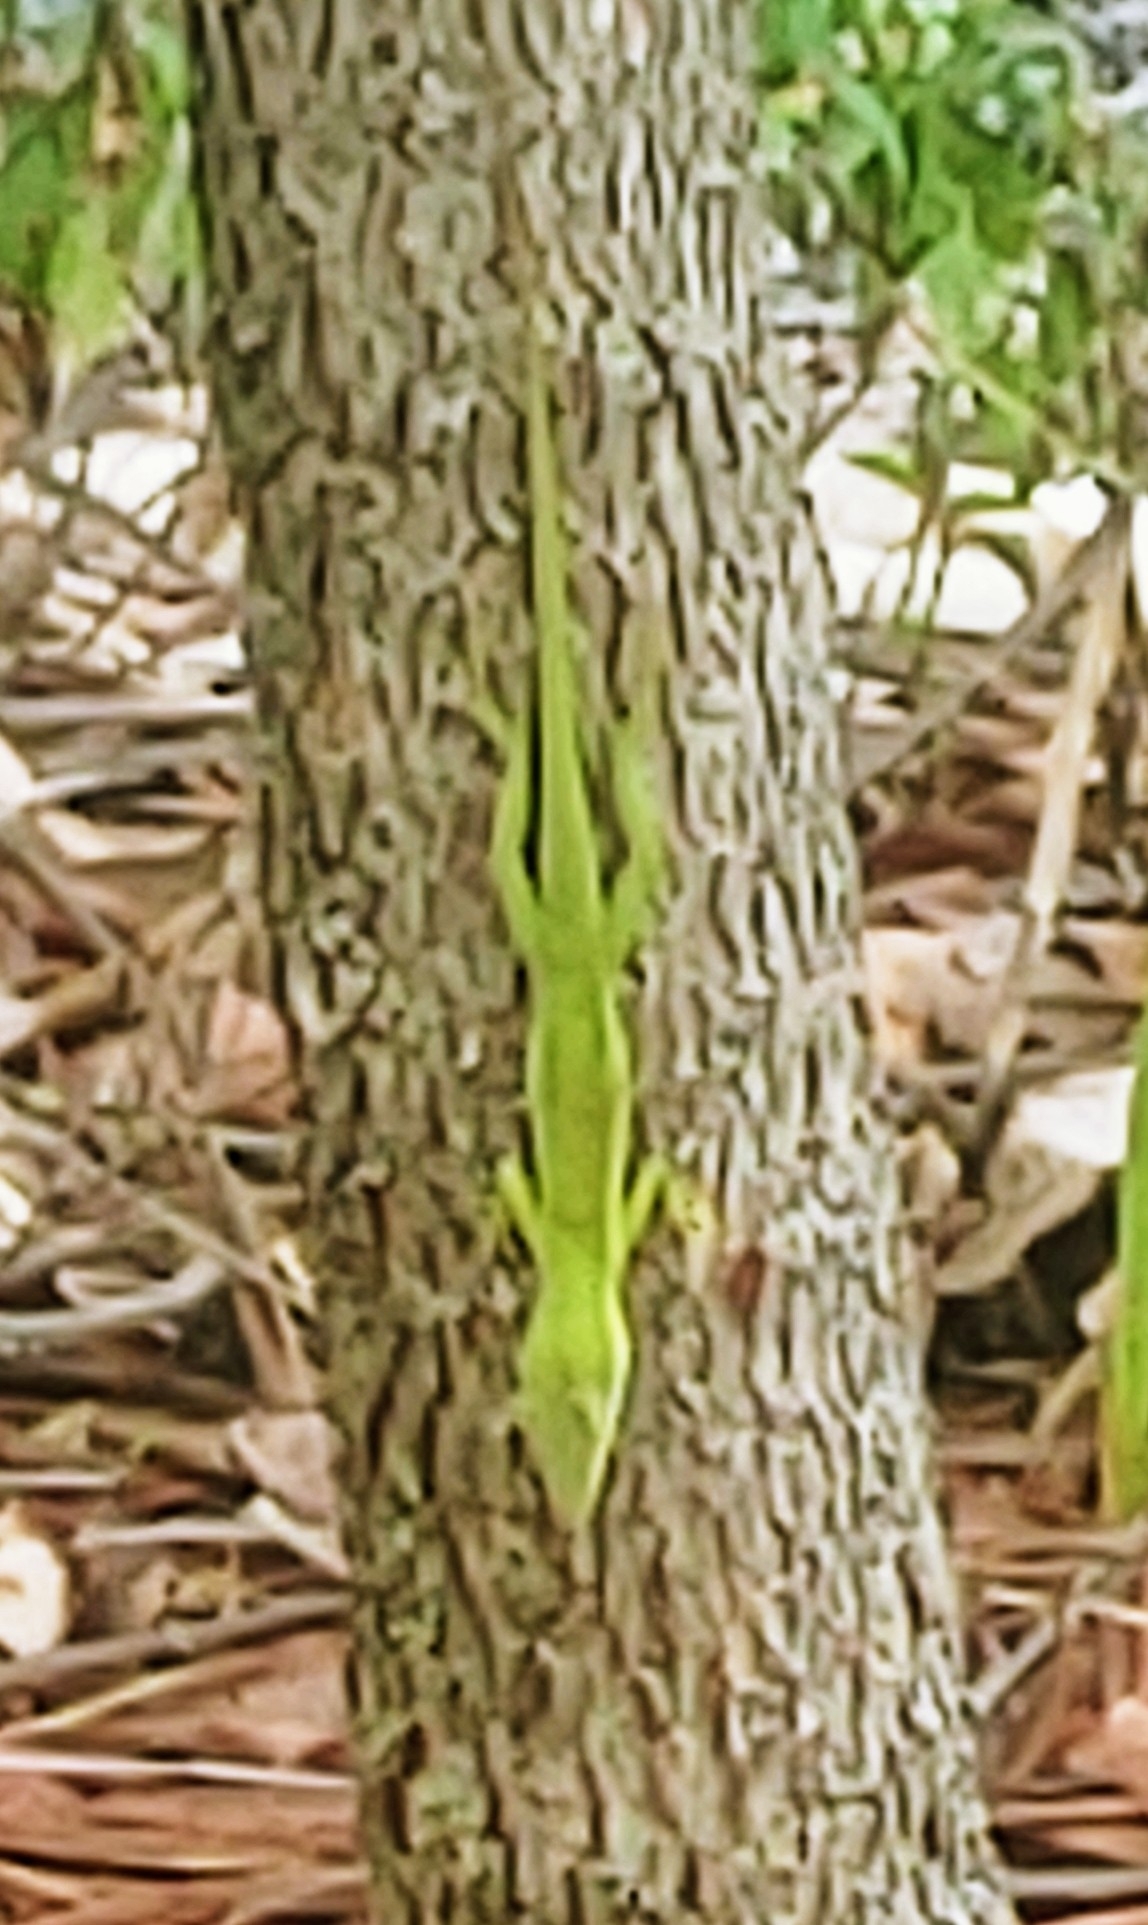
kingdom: Animalia
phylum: Chordata
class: Squamata
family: Dactyloidae
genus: Anolis
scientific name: Anolis carolinensis
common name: Green anole
